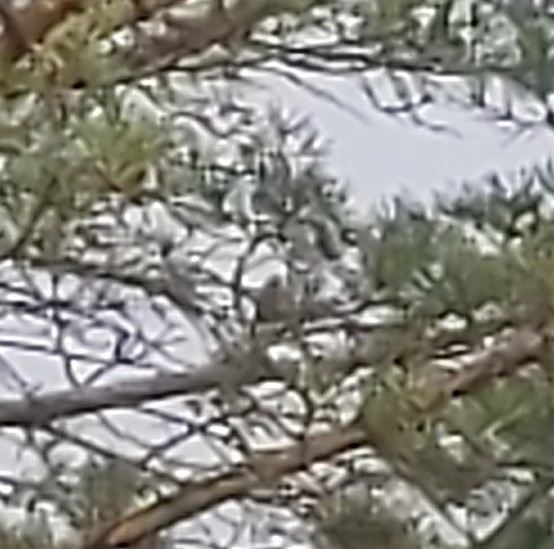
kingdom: Animalia
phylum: Chordata
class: Aves
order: Passeriformes
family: Passerellidae
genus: Spizella
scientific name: Spizella pallida
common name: Clay-colored sparrow
